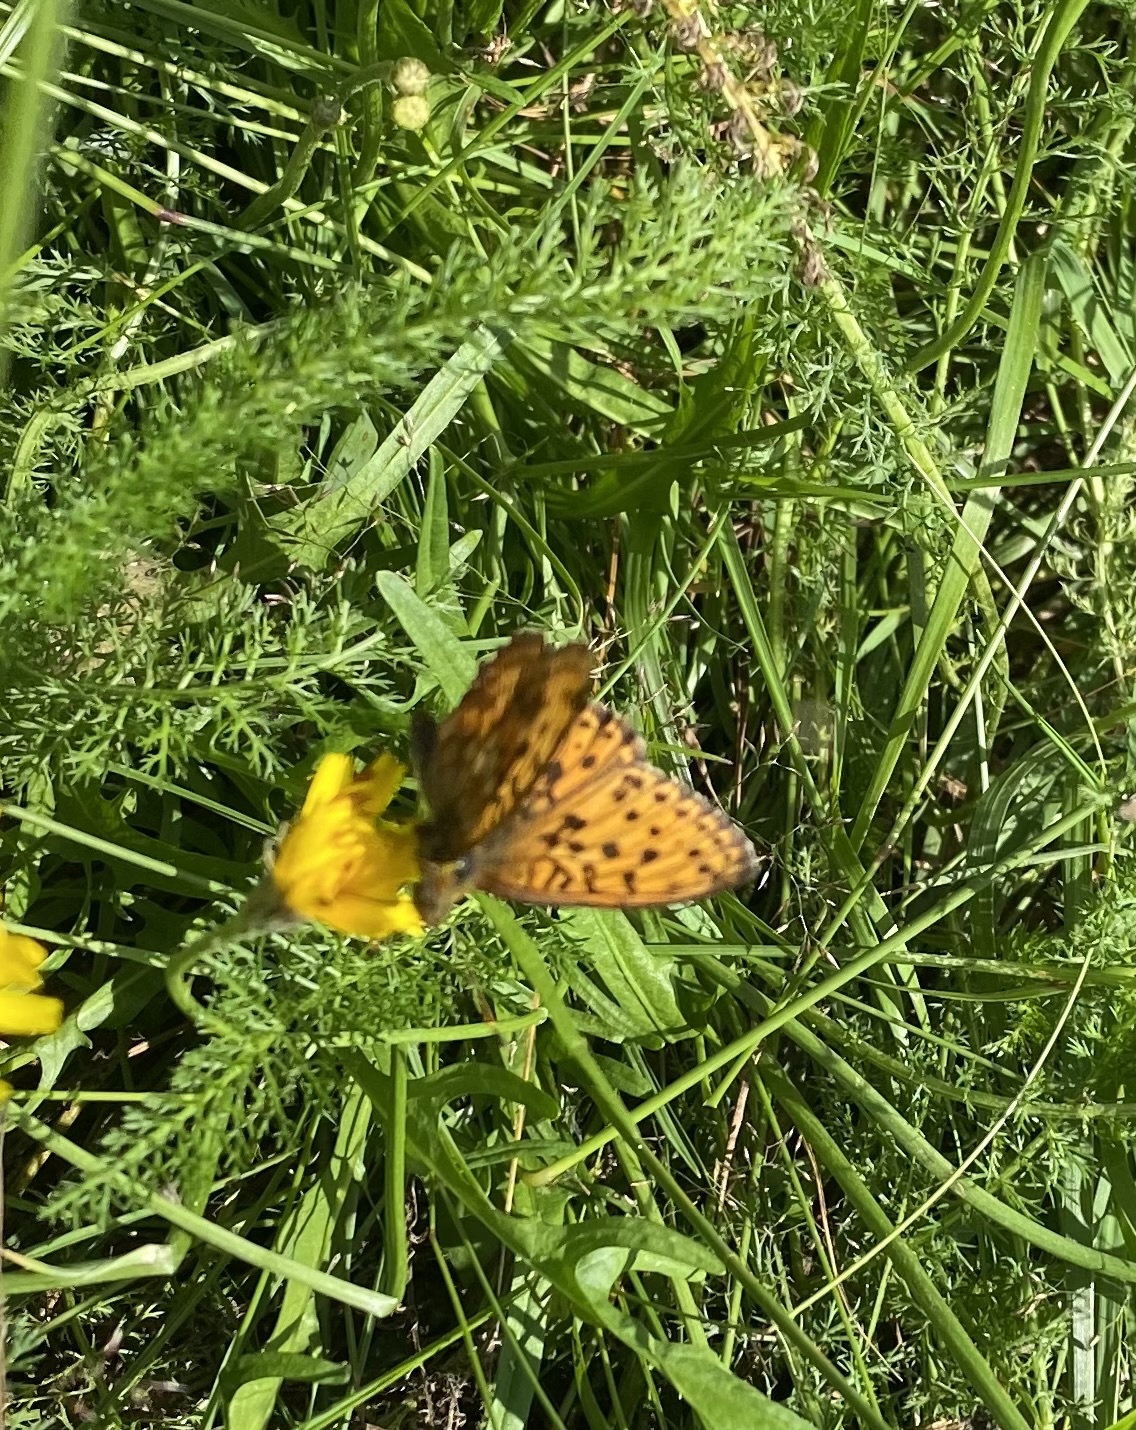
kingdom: Animalia
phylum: Arthropoda
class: Insecta
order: Lepidoptera
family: Nymphalidae
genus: Brenthis
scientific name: Brenthis ino
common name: Lesser marbled fritillary
